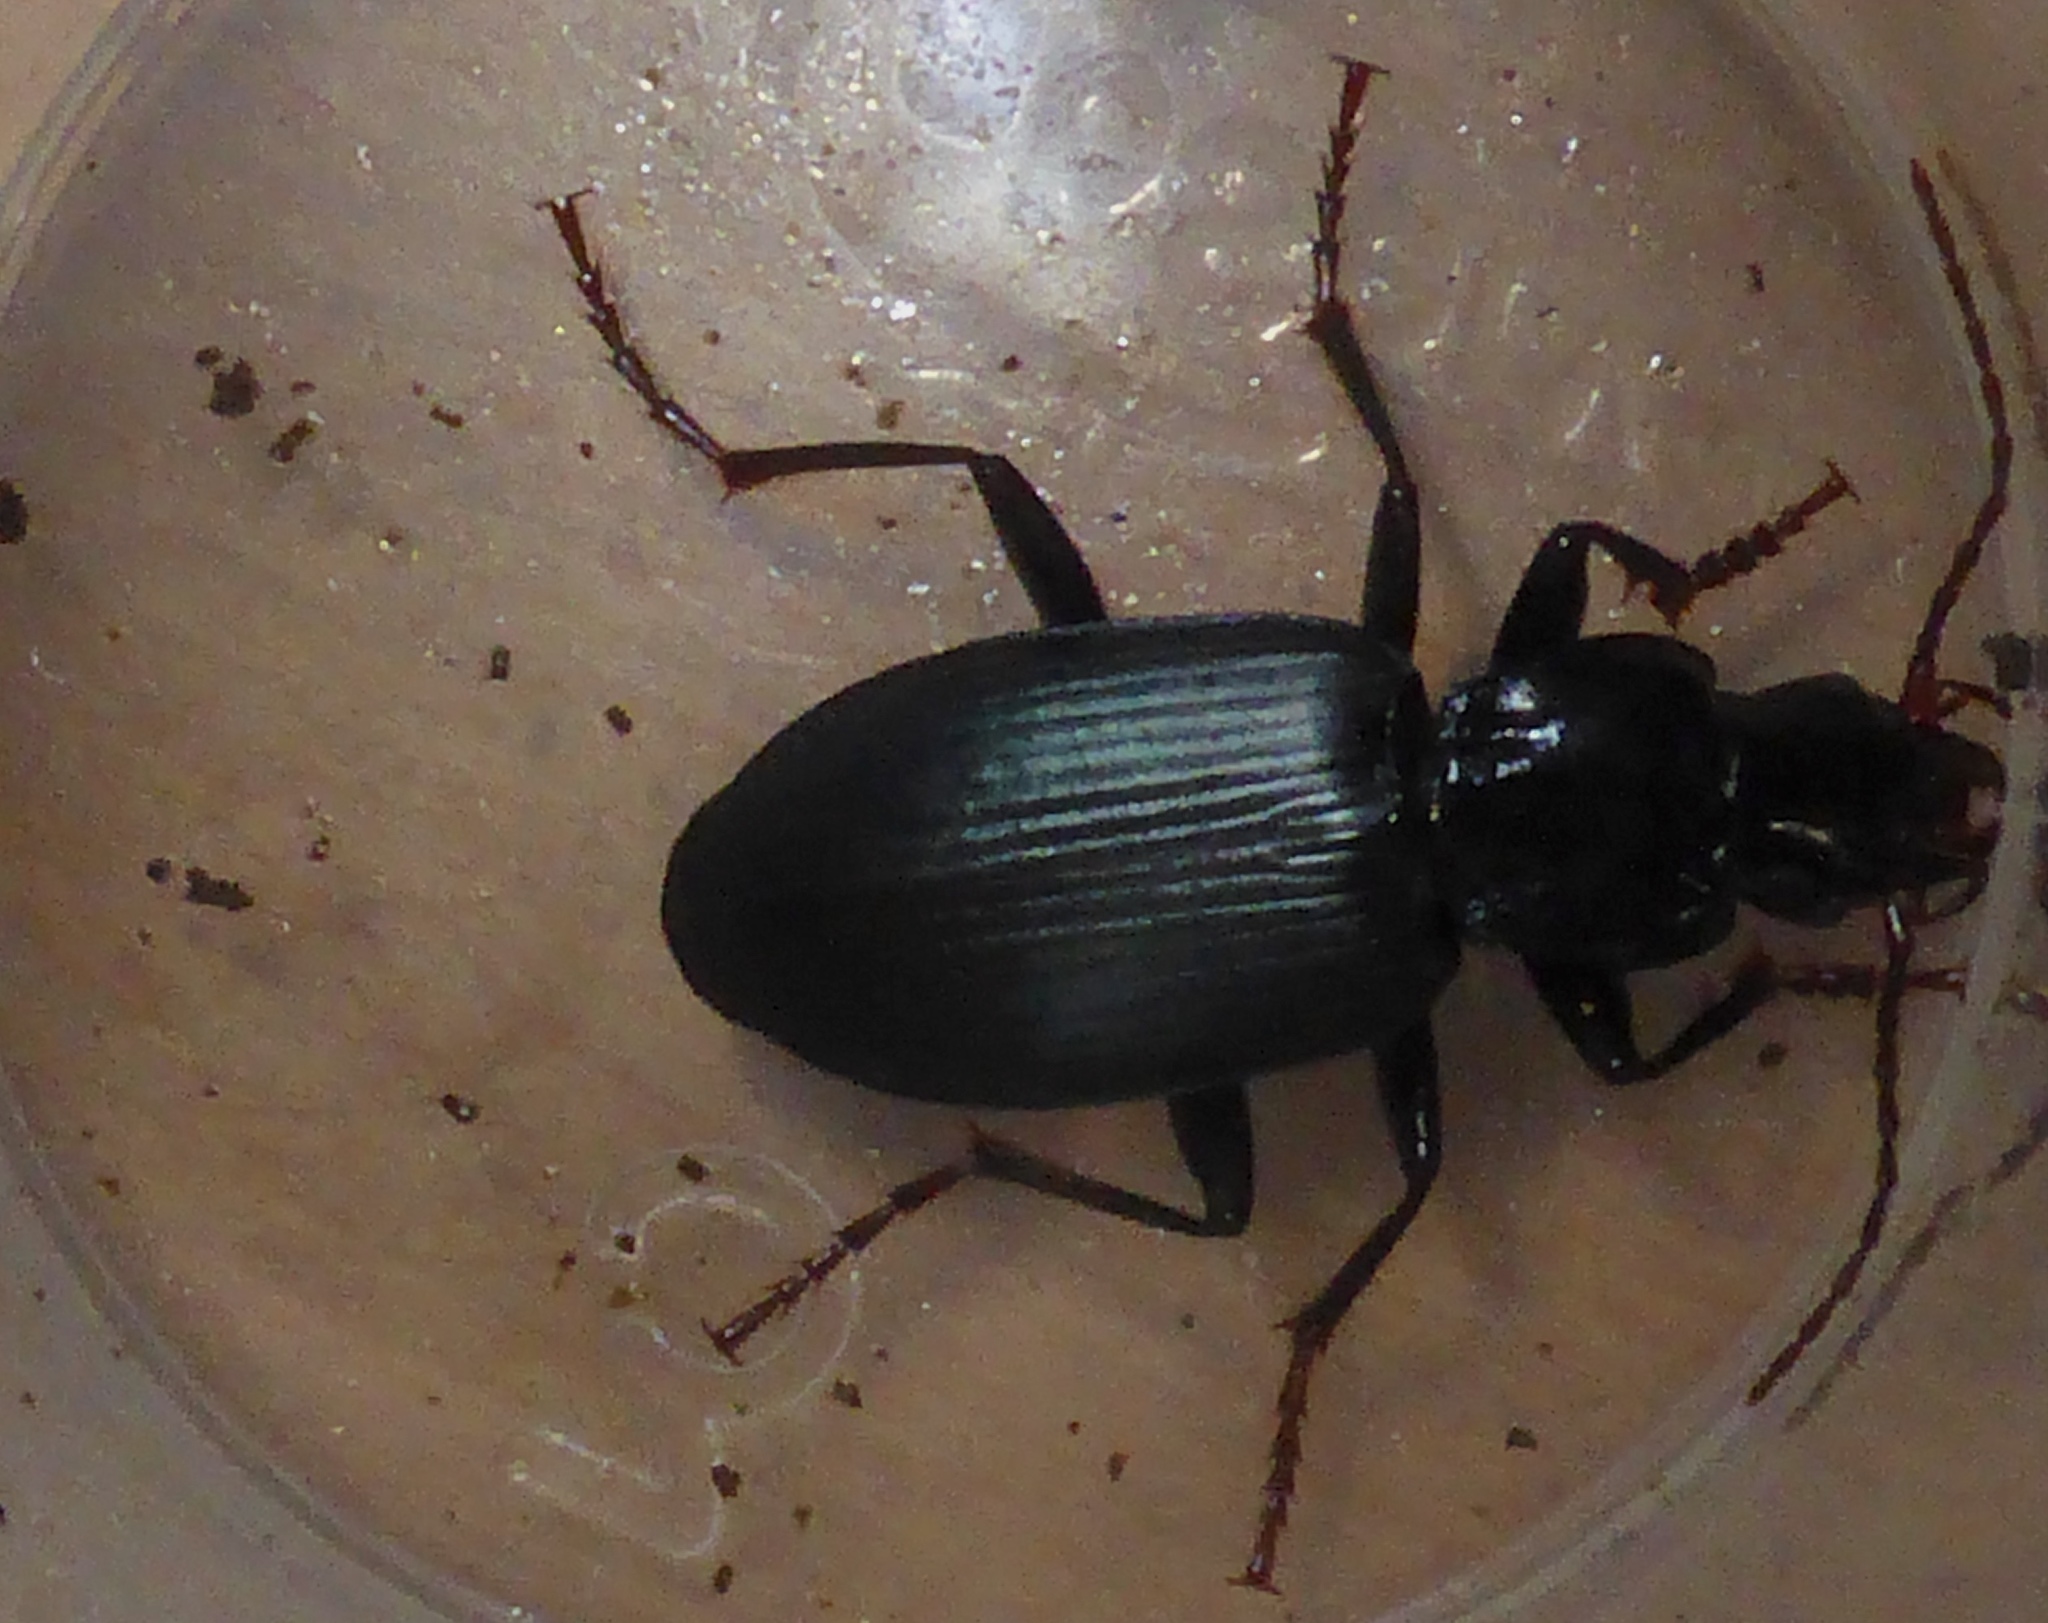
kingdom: Animalia
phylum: Arthropoda
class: Insecta
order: Coleoptera
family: Carabidae
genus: Laemostenus
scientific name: Laemostenus complanatus
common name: Cosmopolitan ground beetle
